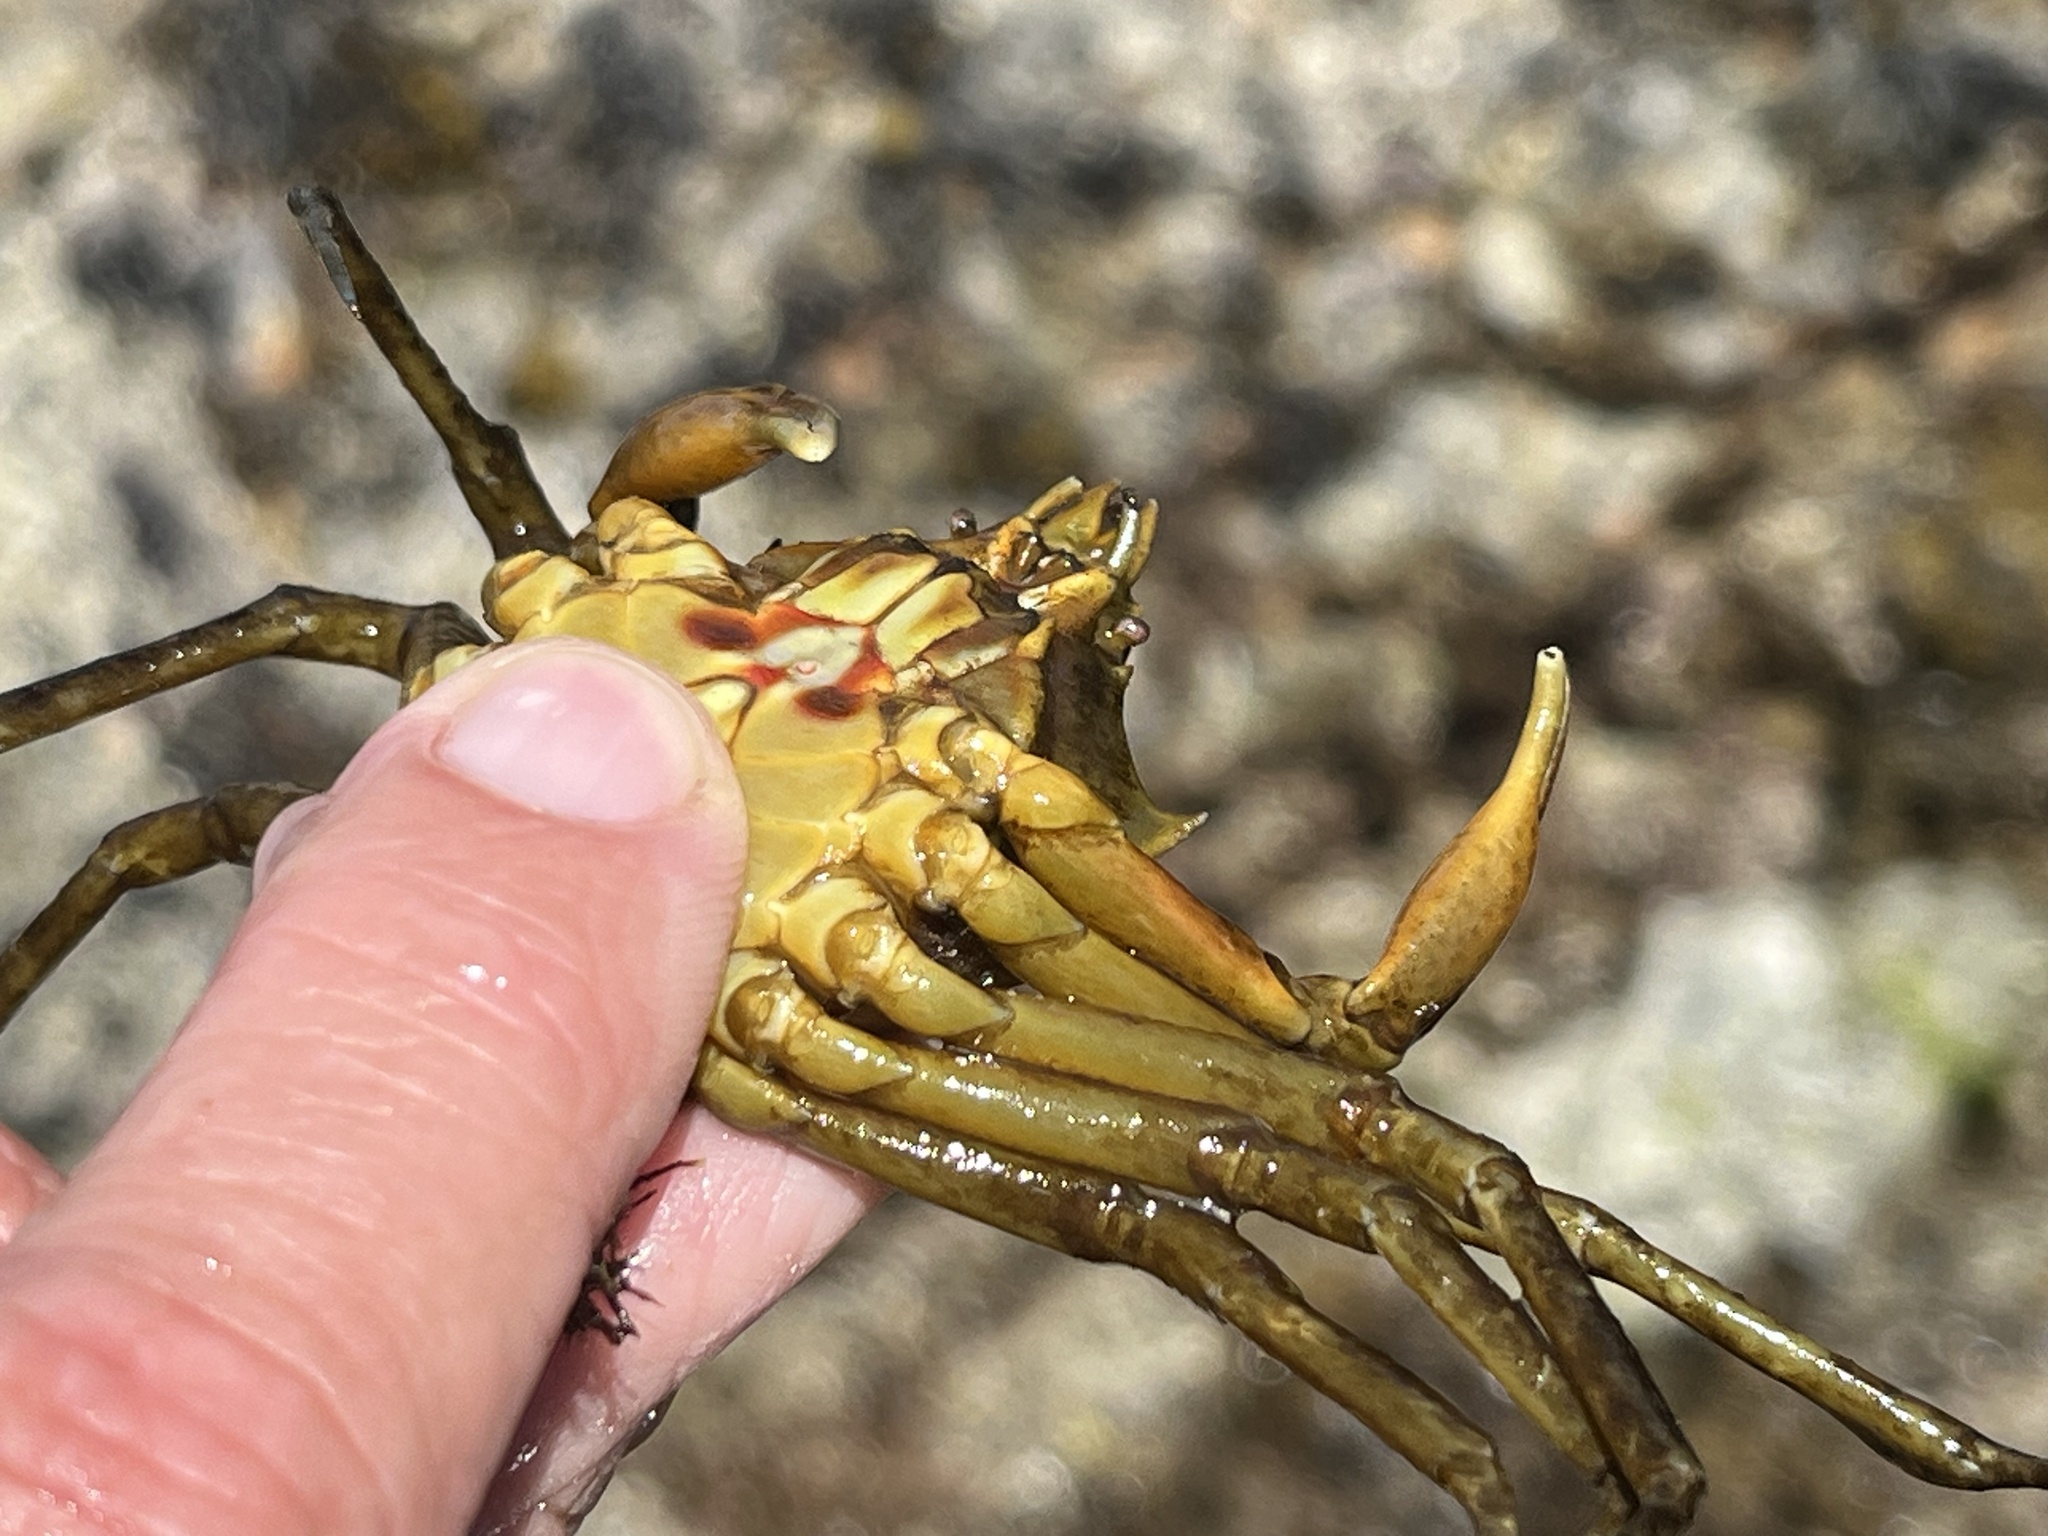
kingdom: Animalia
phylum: Arthropoda
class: Malacostraca
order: Decapoda
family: Epialtidae
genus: Pugettia
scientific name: Pugettia producta
